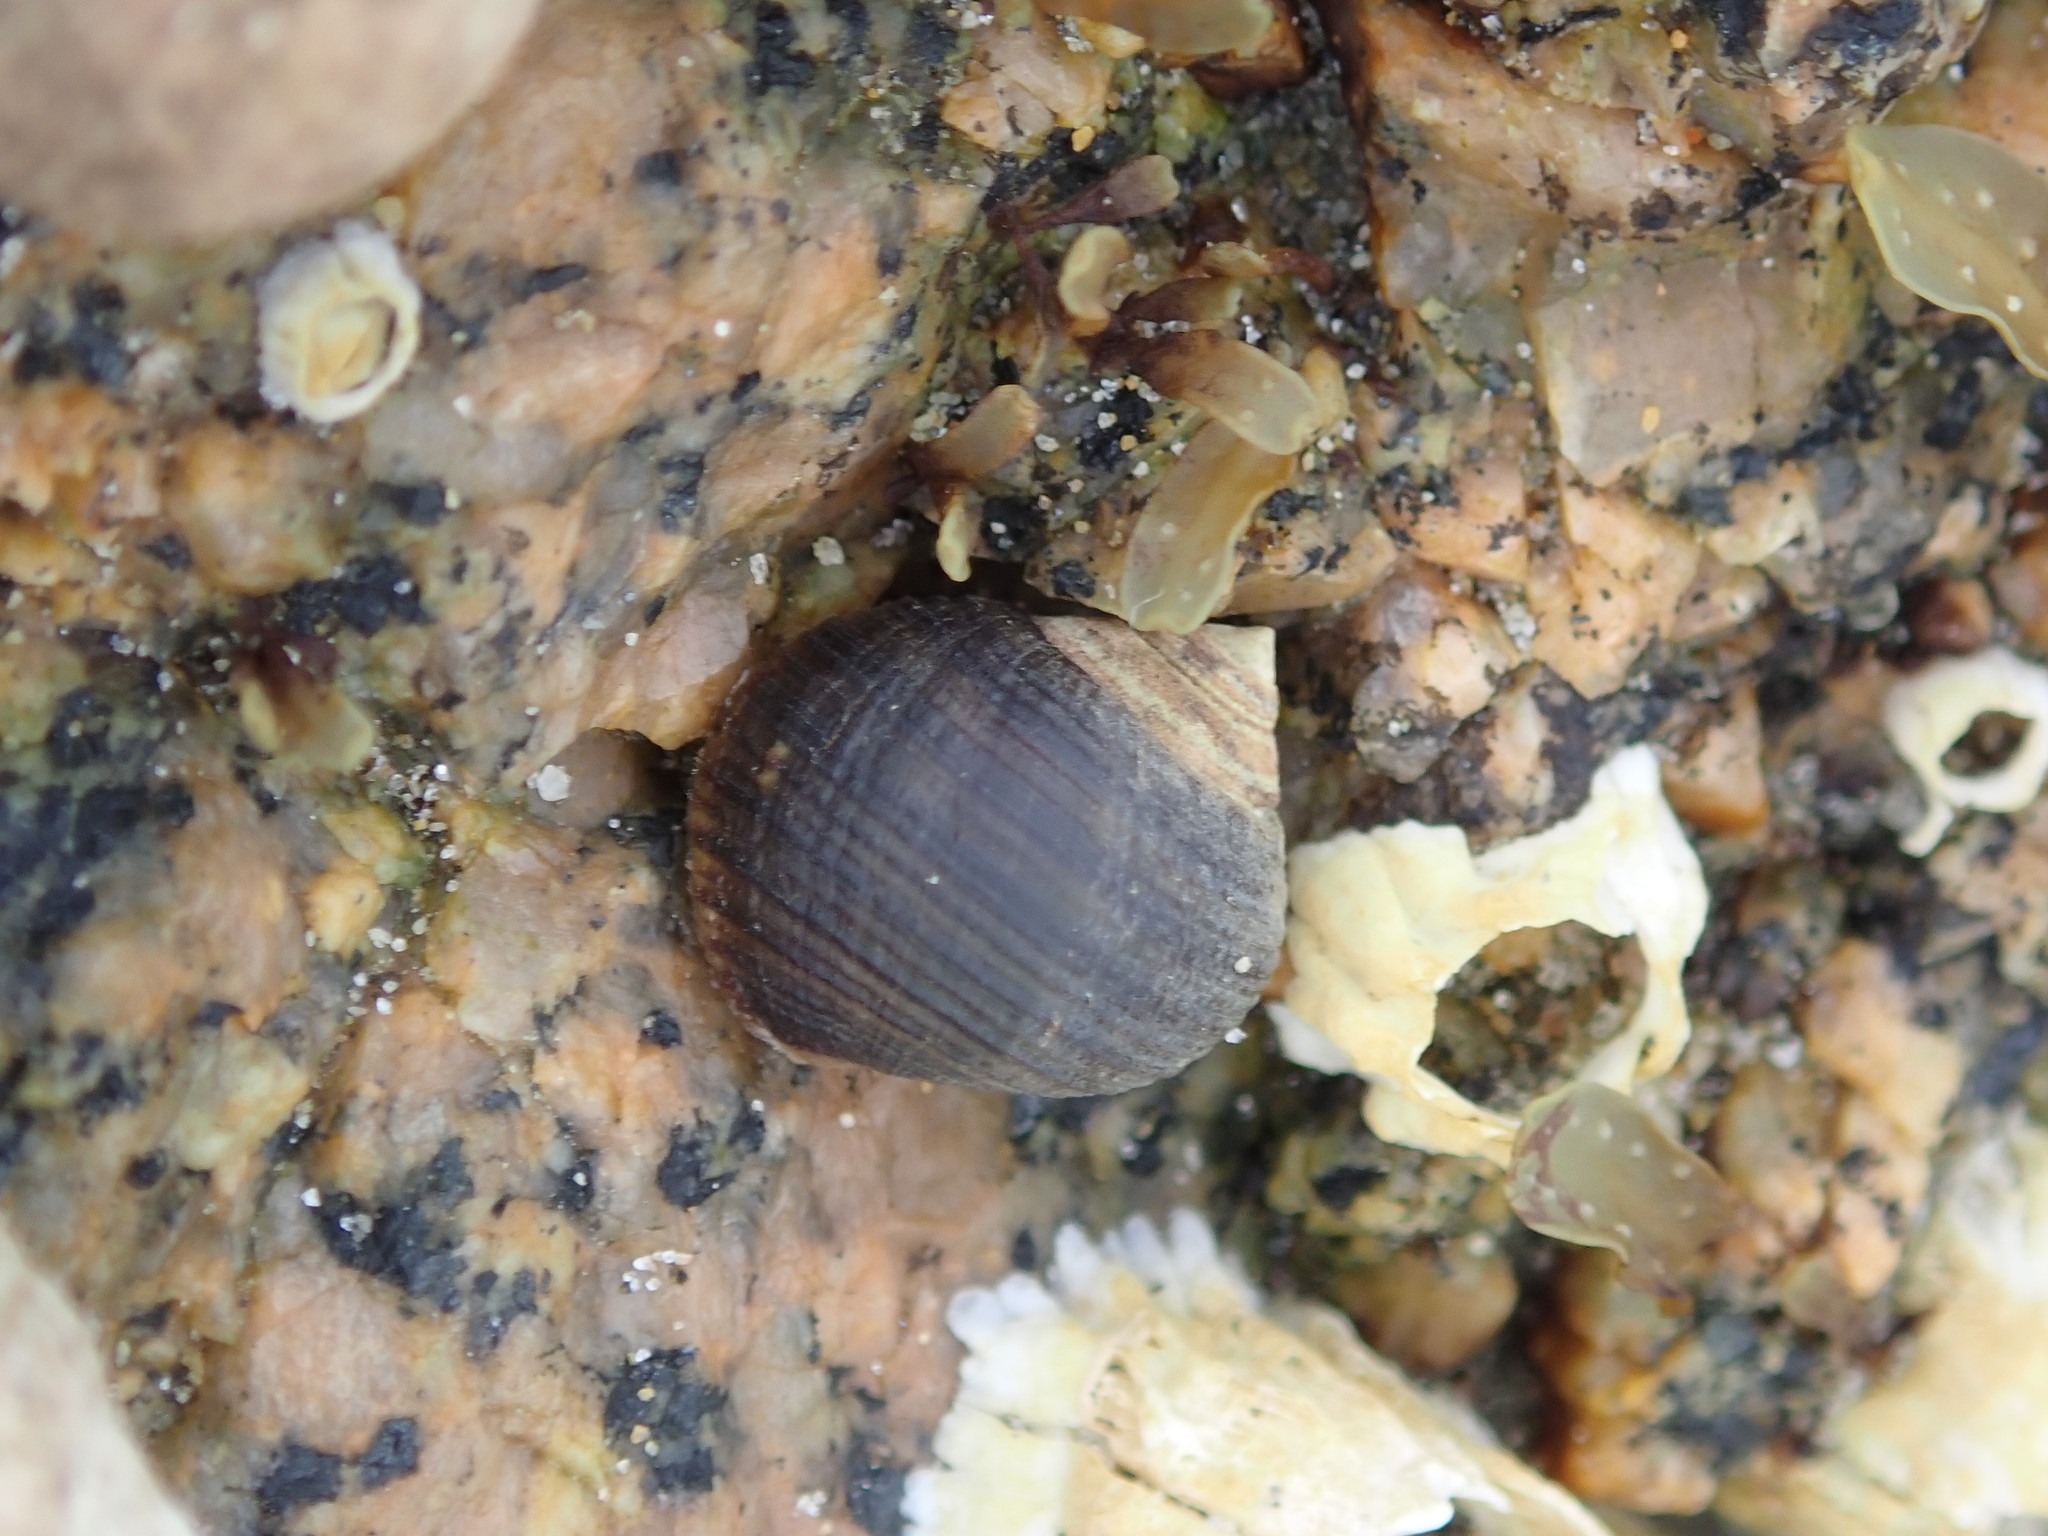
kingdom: Animalia
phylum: Mollusca
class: Gastropoda
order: Littorinimorpha
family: Littorinidae
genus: Littorina
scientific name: Littorina littorea
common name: Common periwinkle
